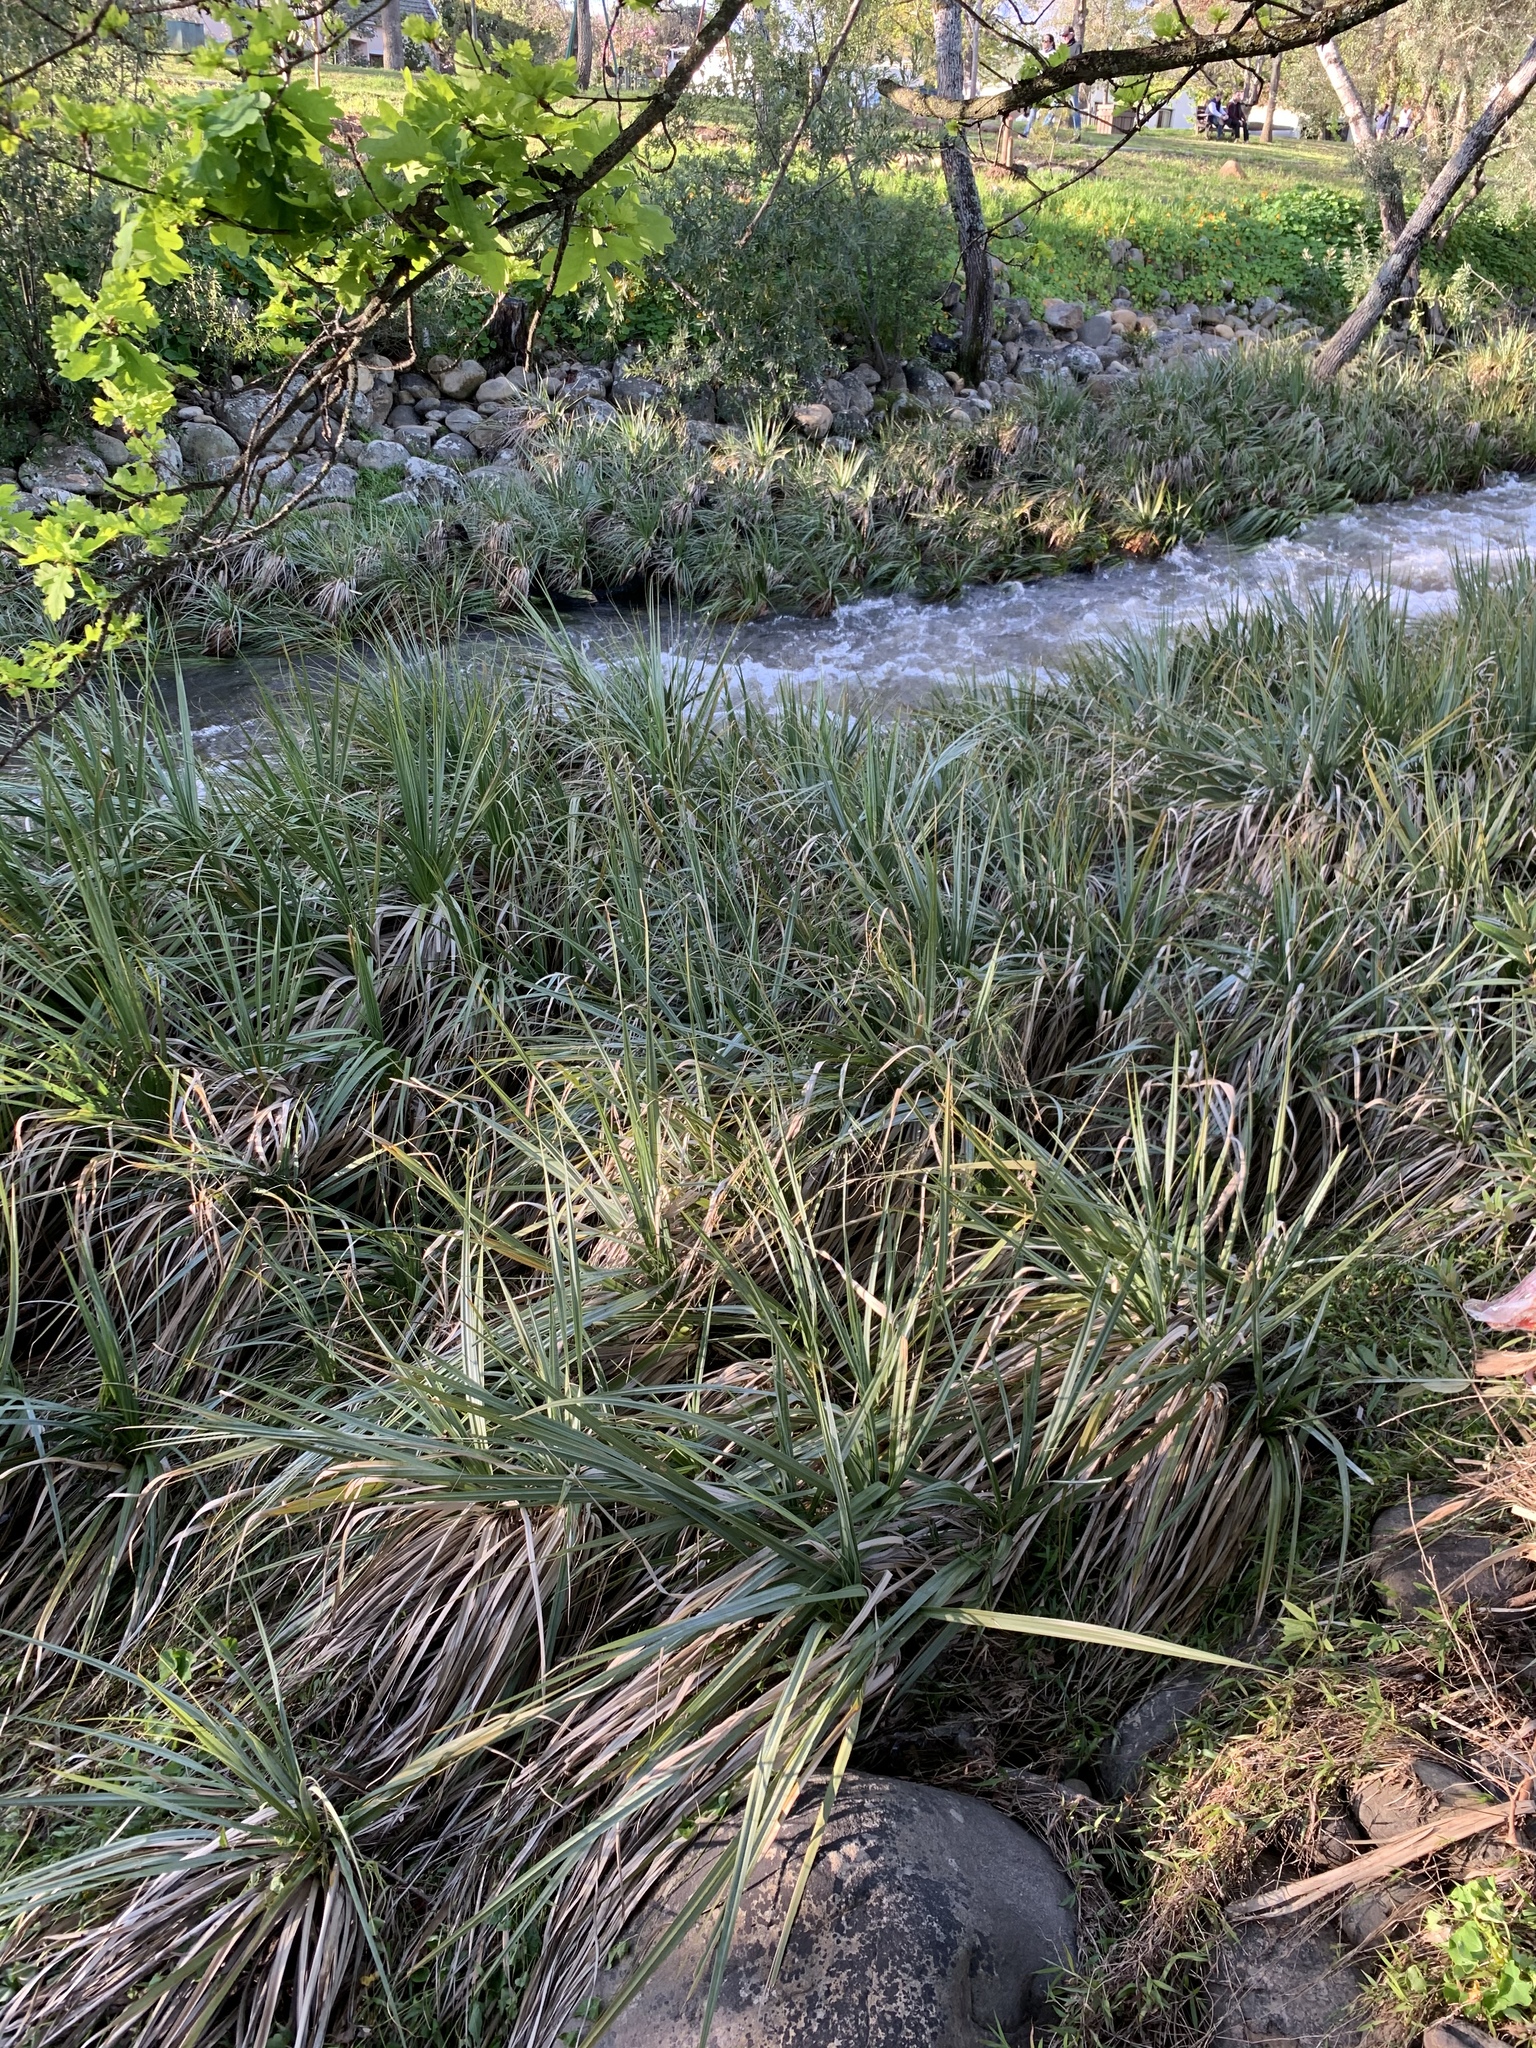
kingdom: Plantae
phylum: Tracheophyta
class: Liliopsida
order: Poales
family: Thurniaceae
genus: Prionium
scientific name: Prionium serratum
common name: Palmiet
